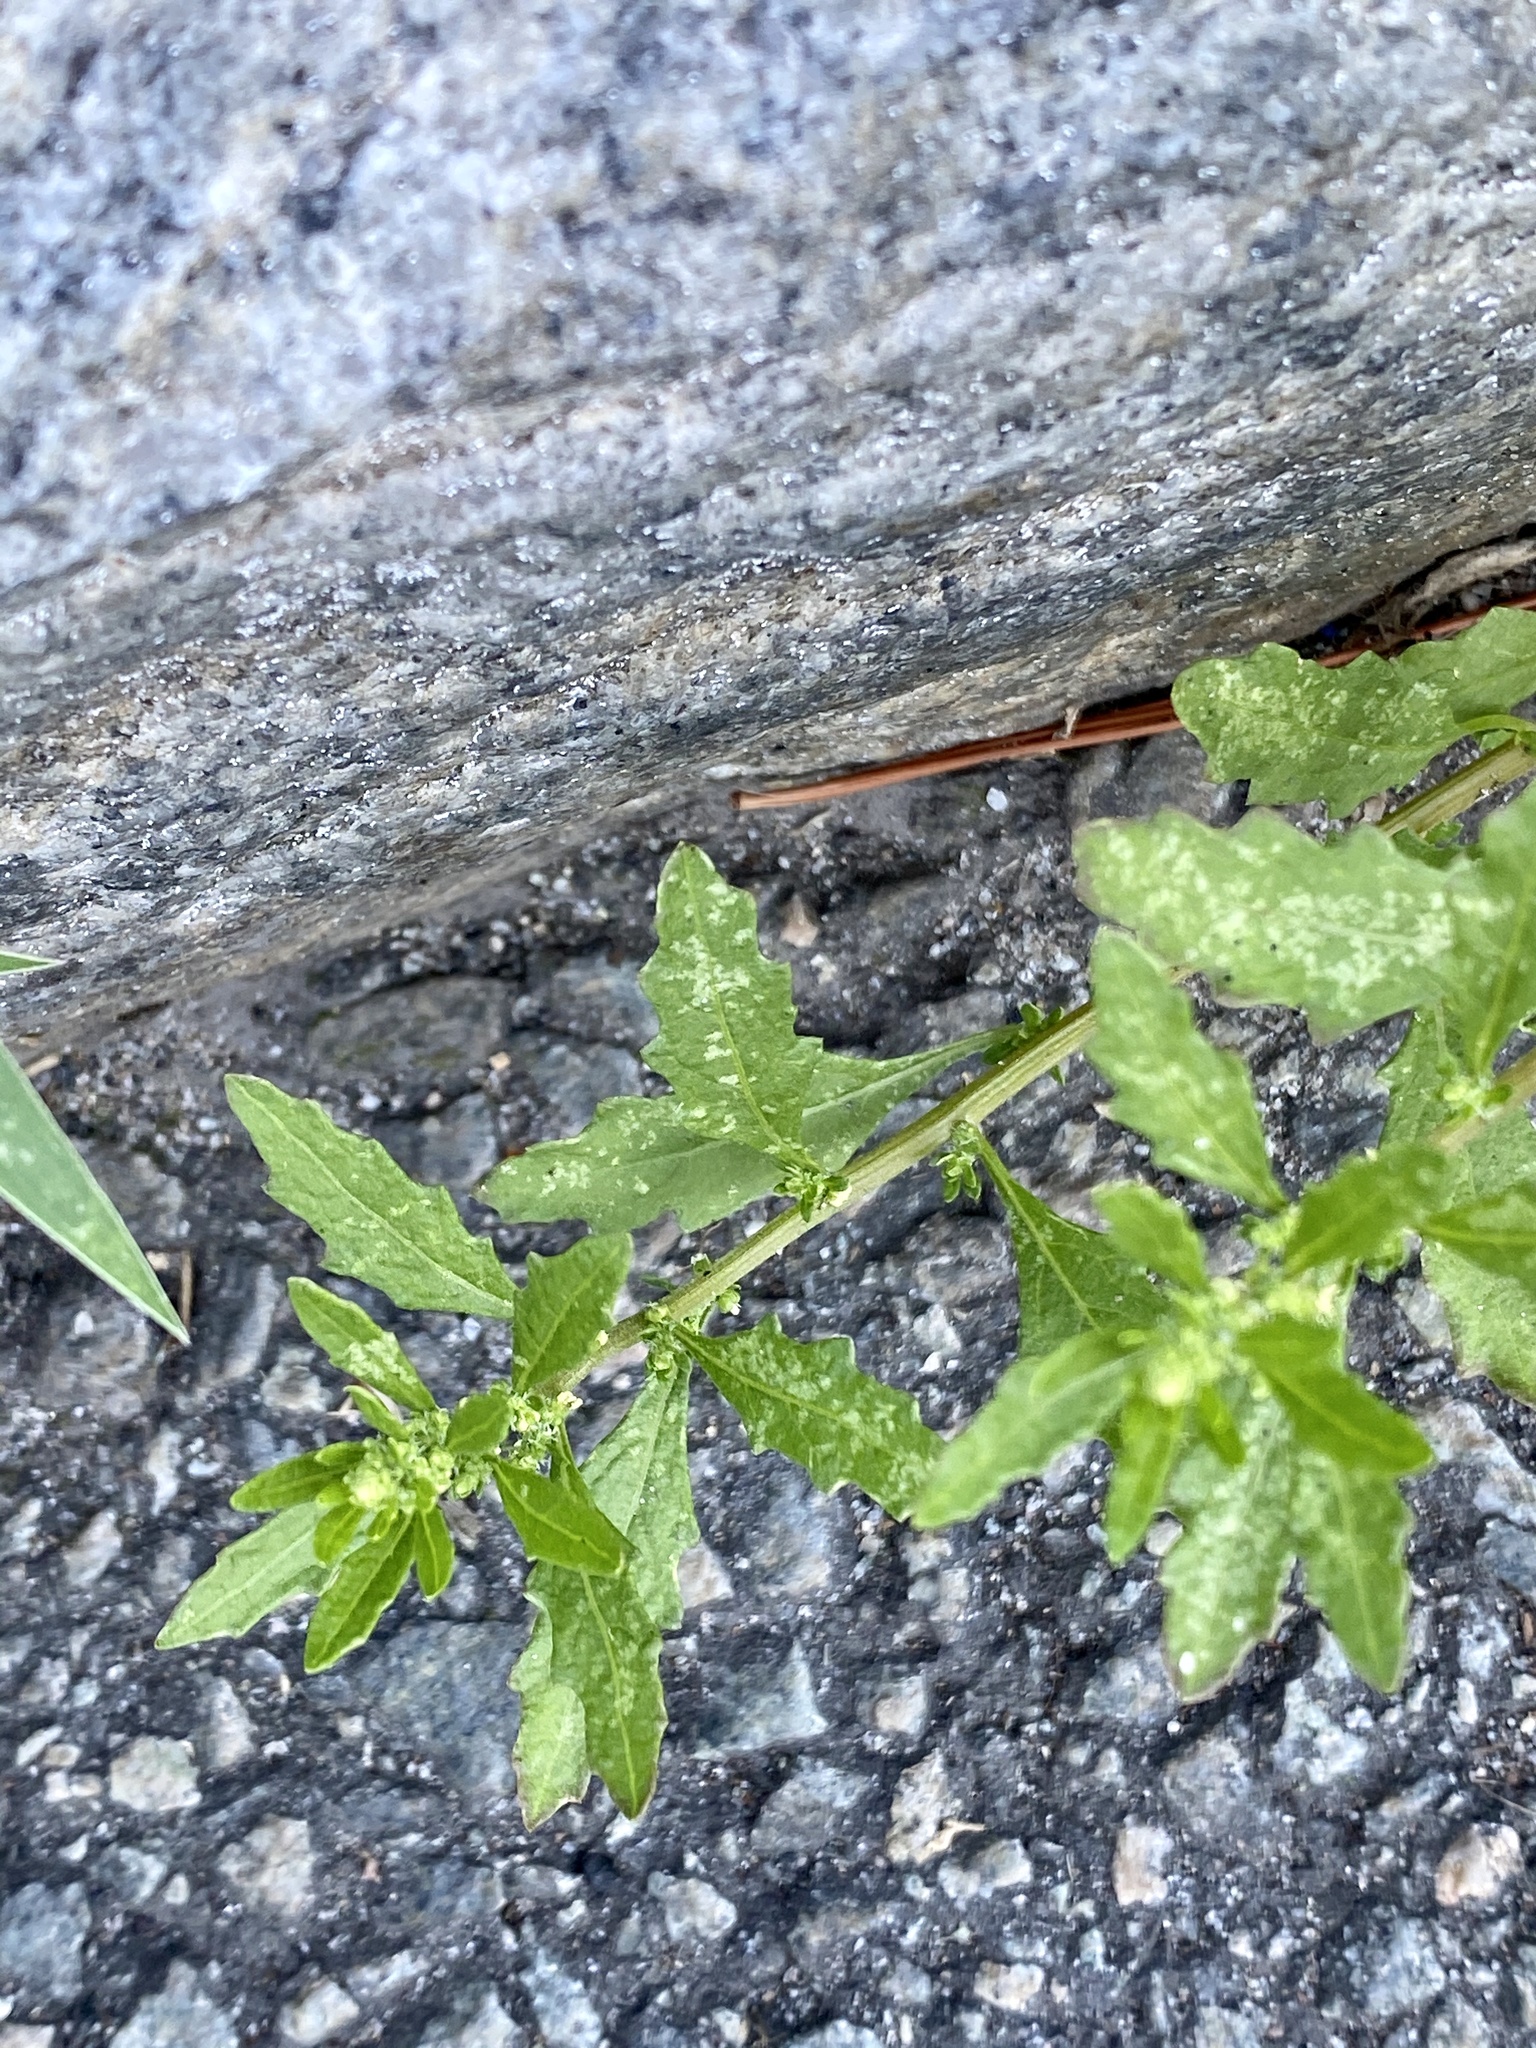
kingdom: Plantae
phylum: Tracheophyta
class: Magnoliopsida
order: Caryophyllales
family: Amaranthaceae
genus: Dysphania
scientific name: Dysphania ambrosioides
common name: Wormseed
